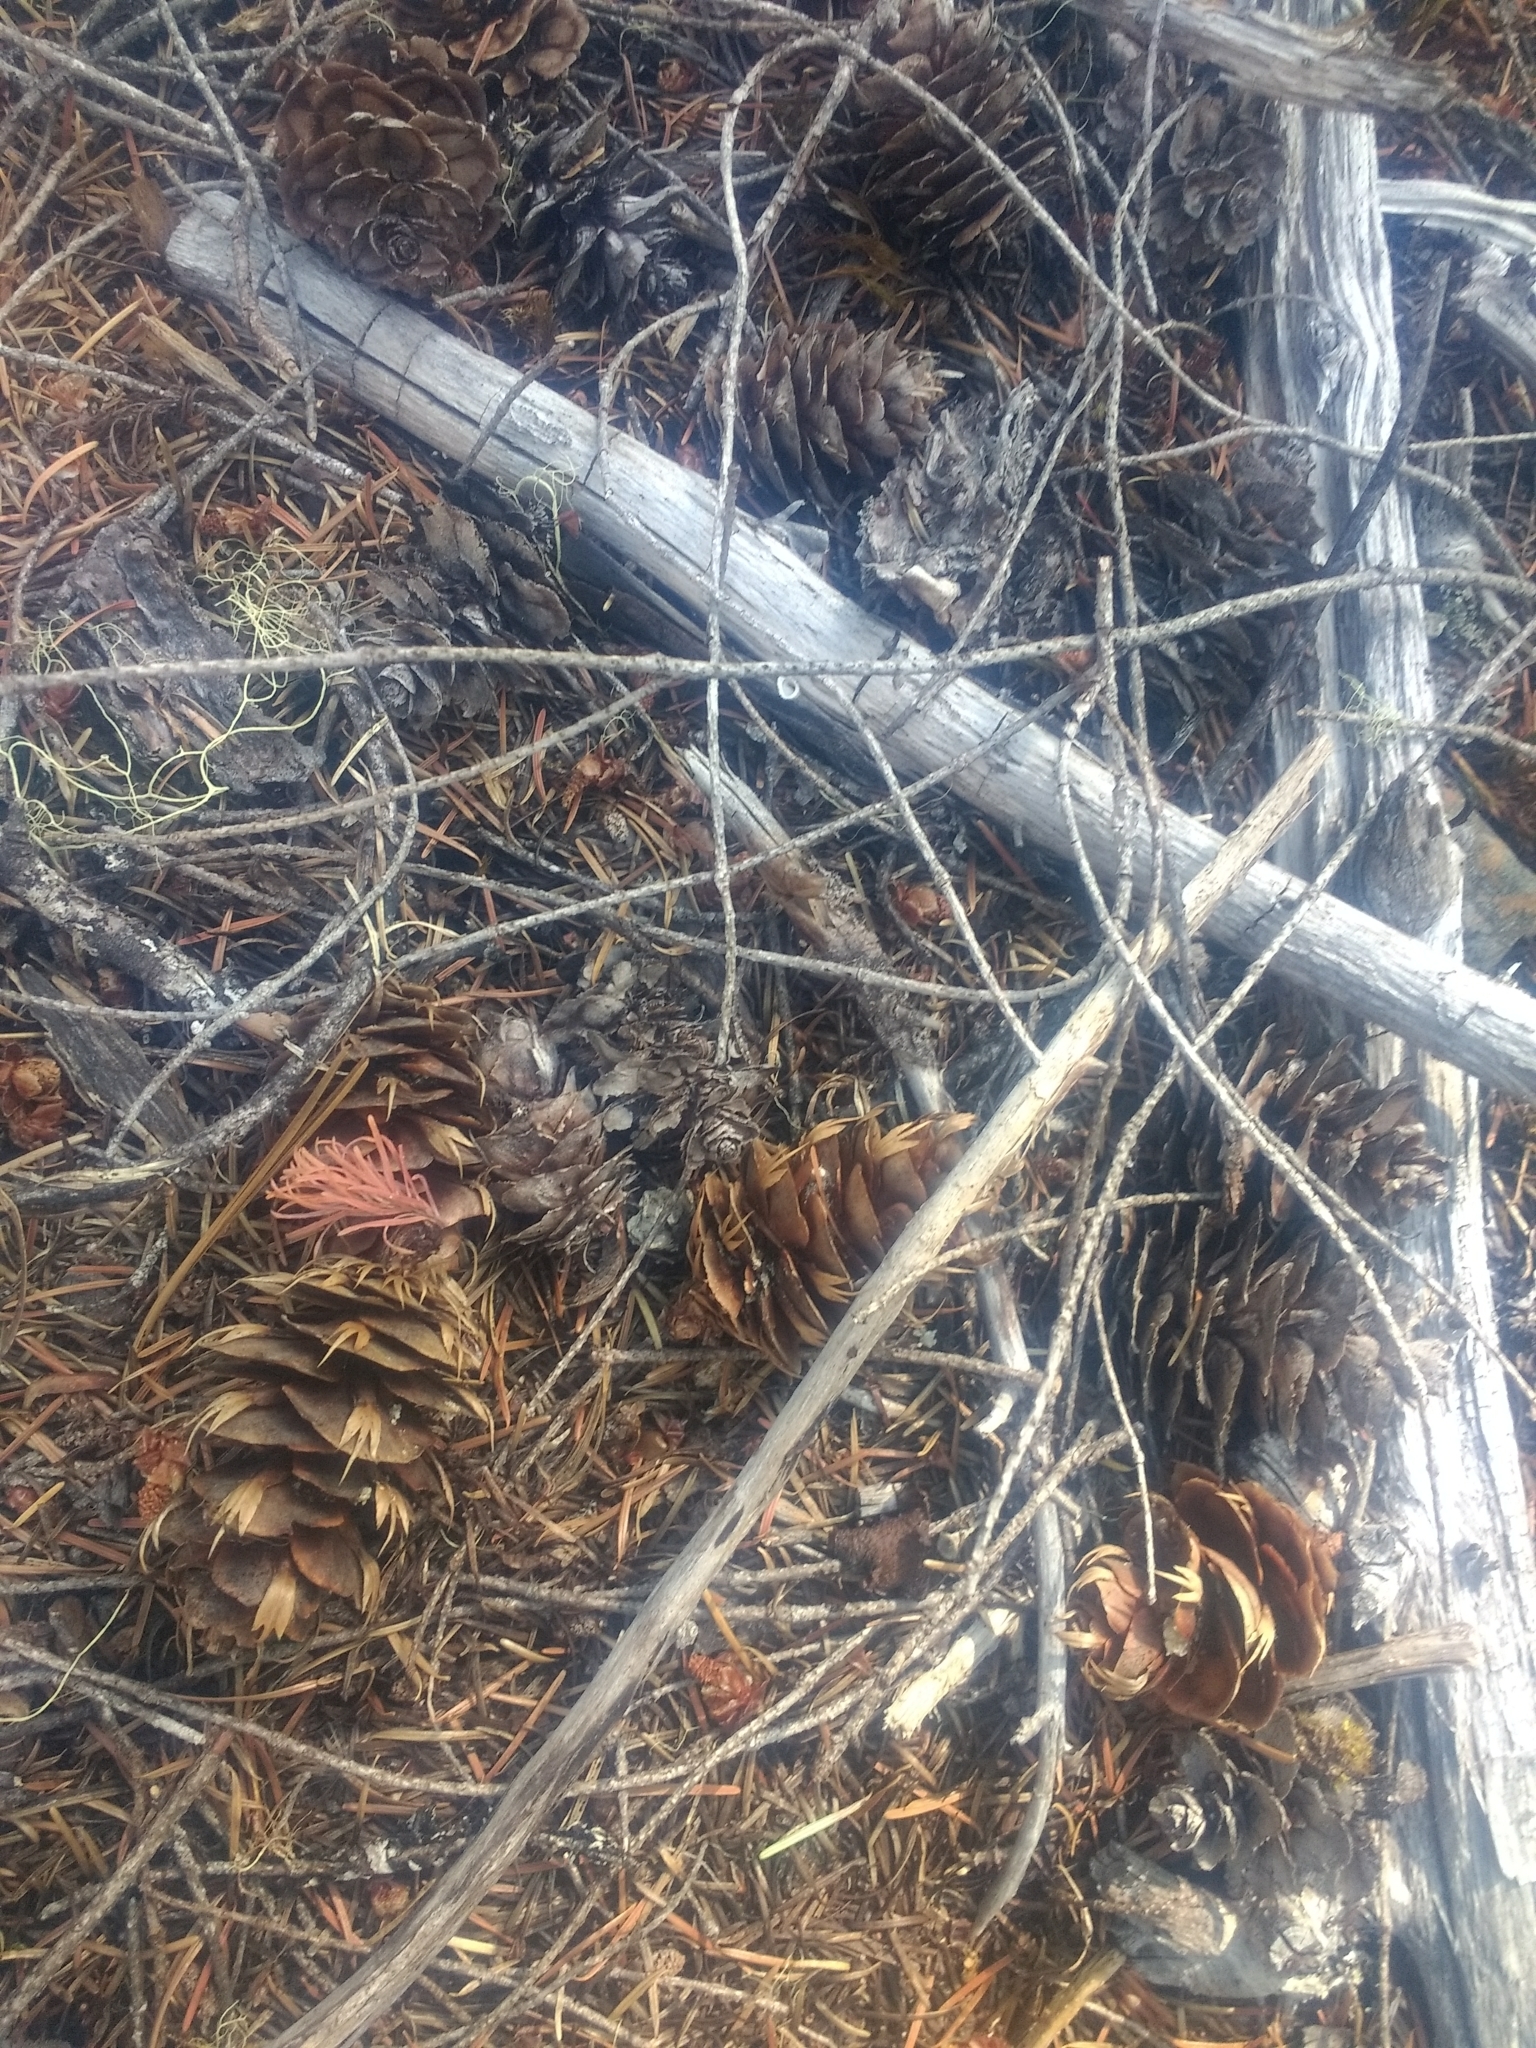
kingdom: Plantae
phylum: Tracheophyta
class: Pinopsida
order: Pinales
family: Pinaceae
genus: Pseudotsuga
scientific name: Pseudotsuga menziesii
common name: Douglas fir
